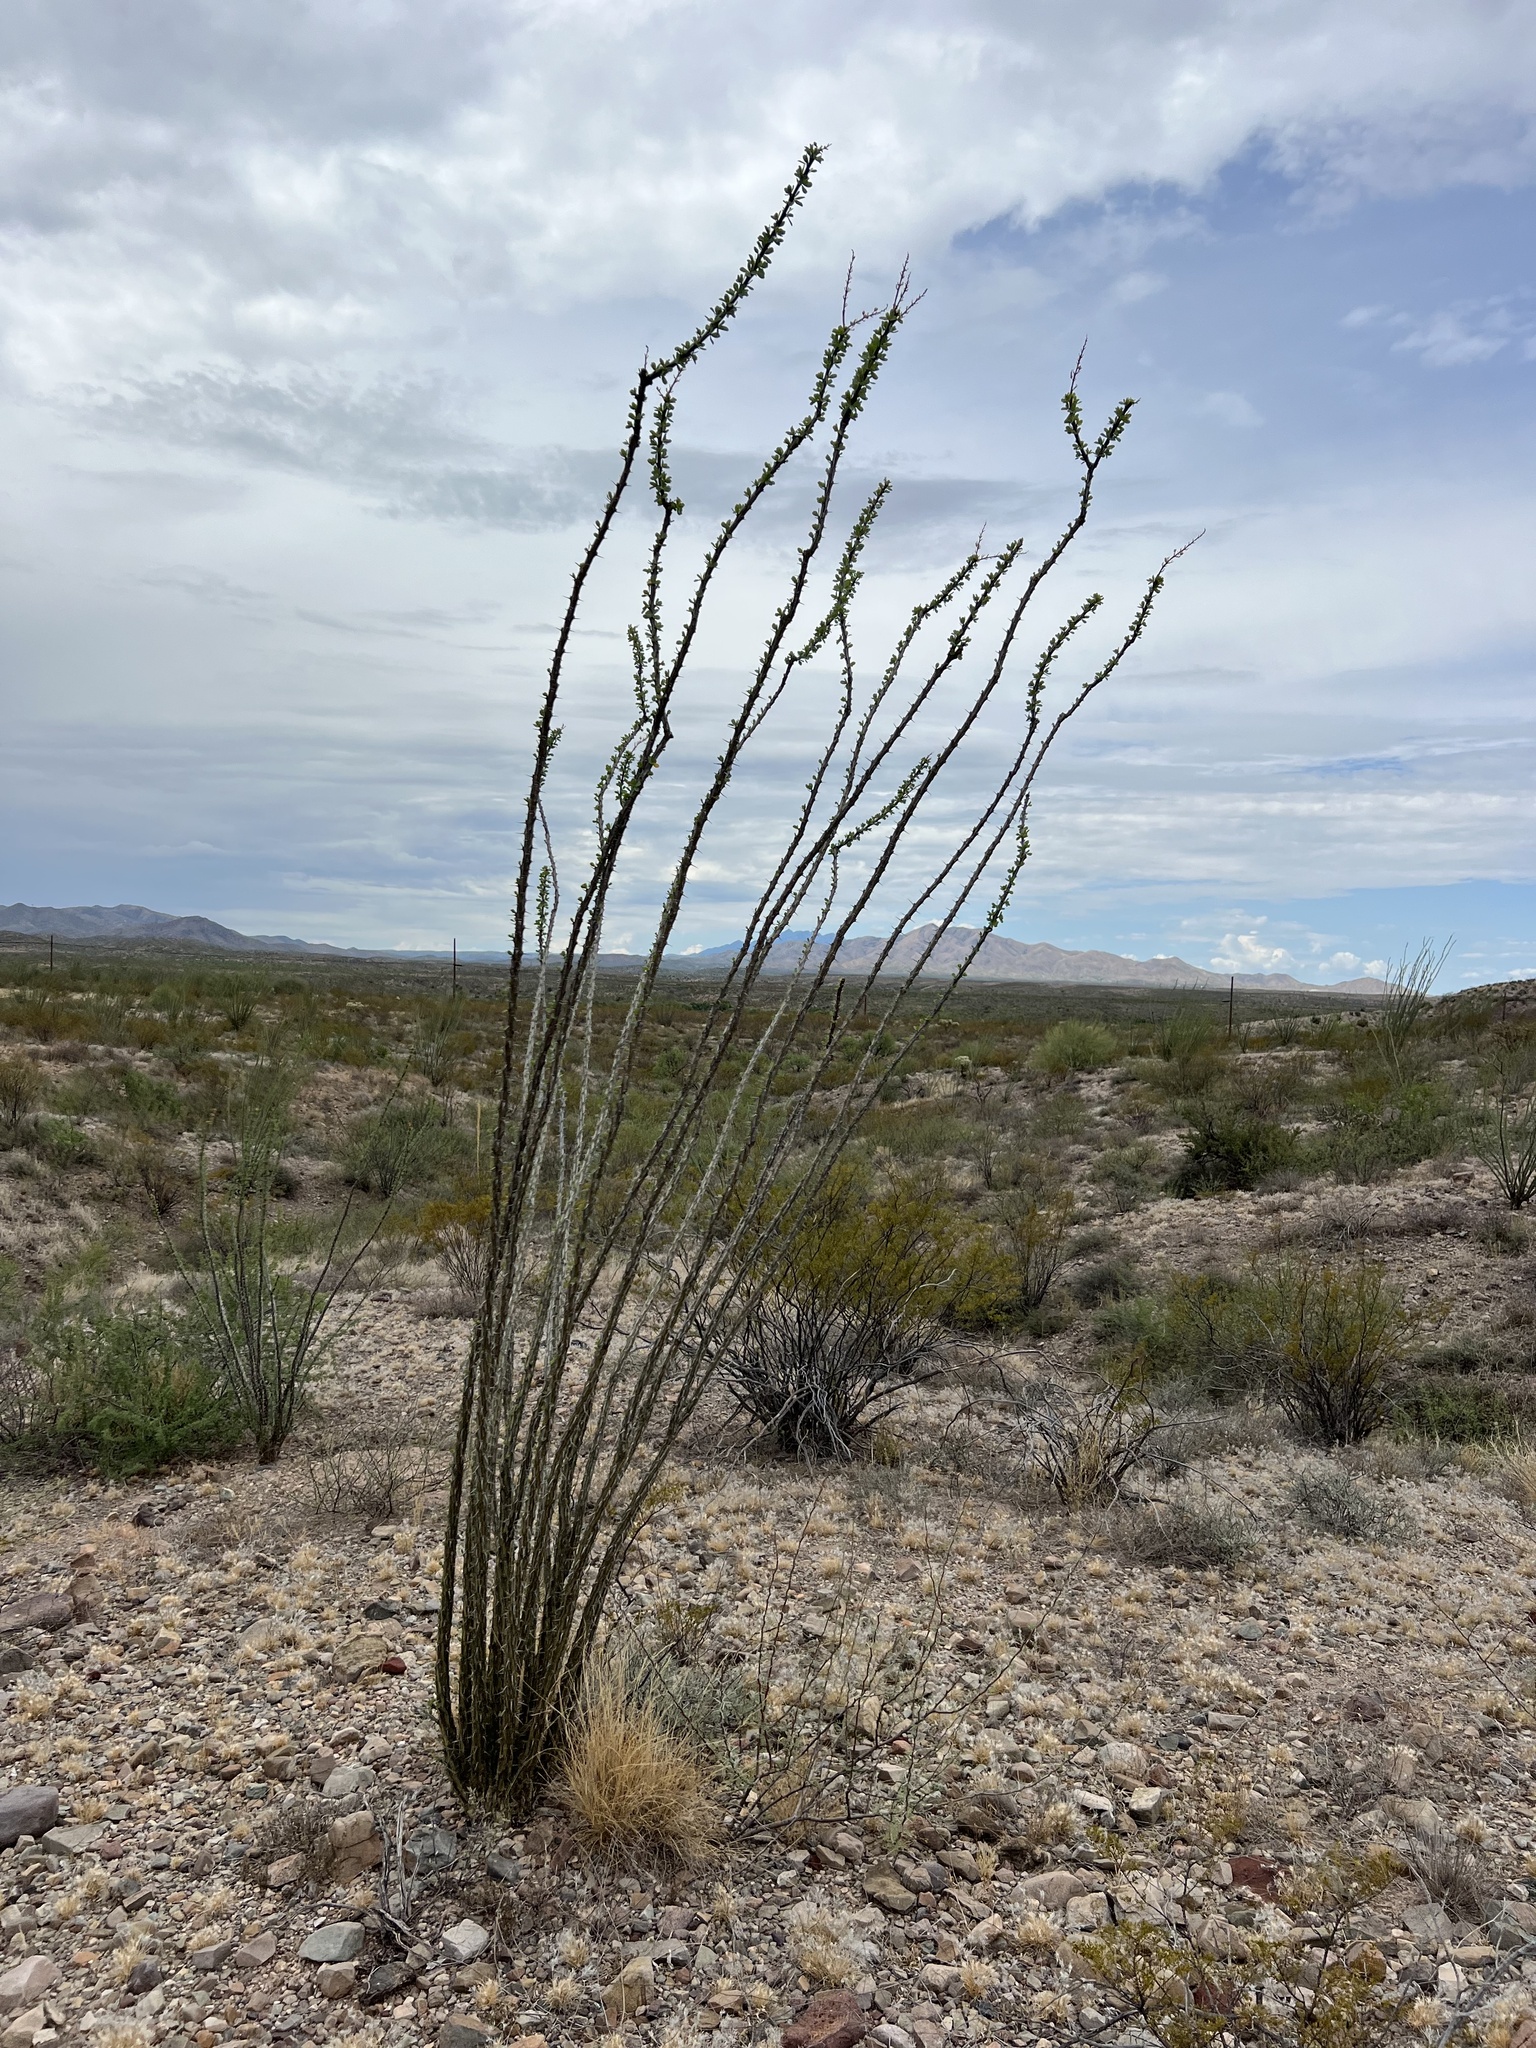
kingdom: Plantae
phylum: Tracheophyta
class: Magnoliopsida
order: Ericales
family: Fouquieriaceae
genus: Fouquieria
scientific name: Fouquieria splendens
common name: Vine-cactus
